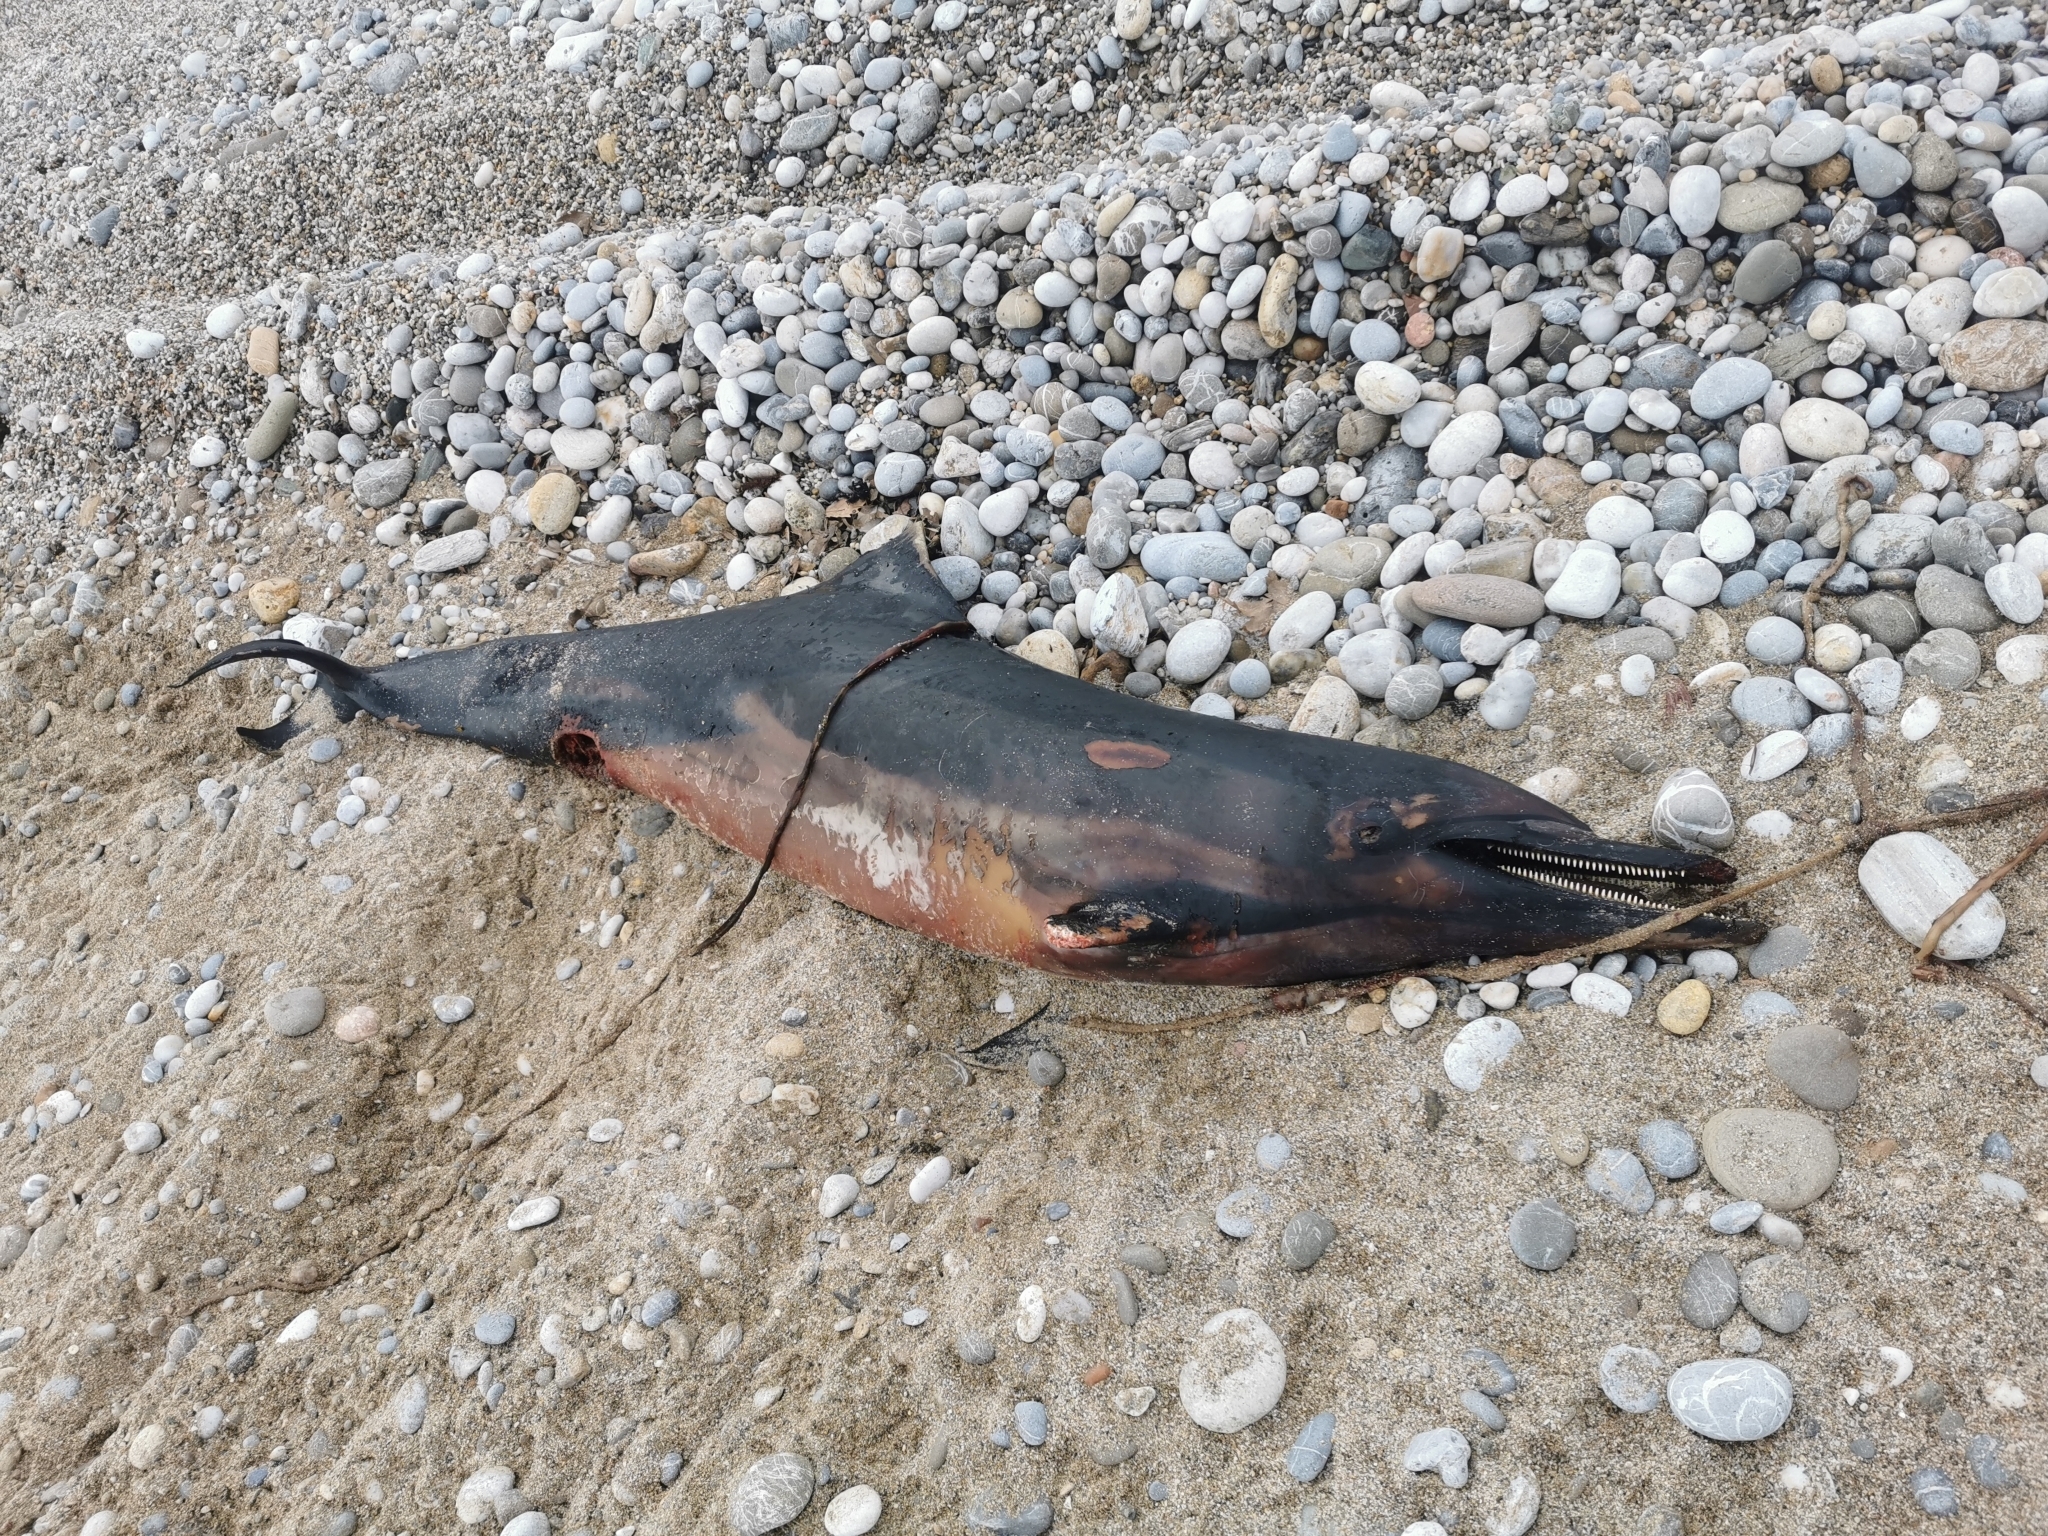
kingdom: Animalia
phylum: Chordata
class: Mammalia
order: Cetacea
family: Delphinidae
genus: Stenella
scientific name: Stenella coeruleoalba
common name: Striped dolphin
